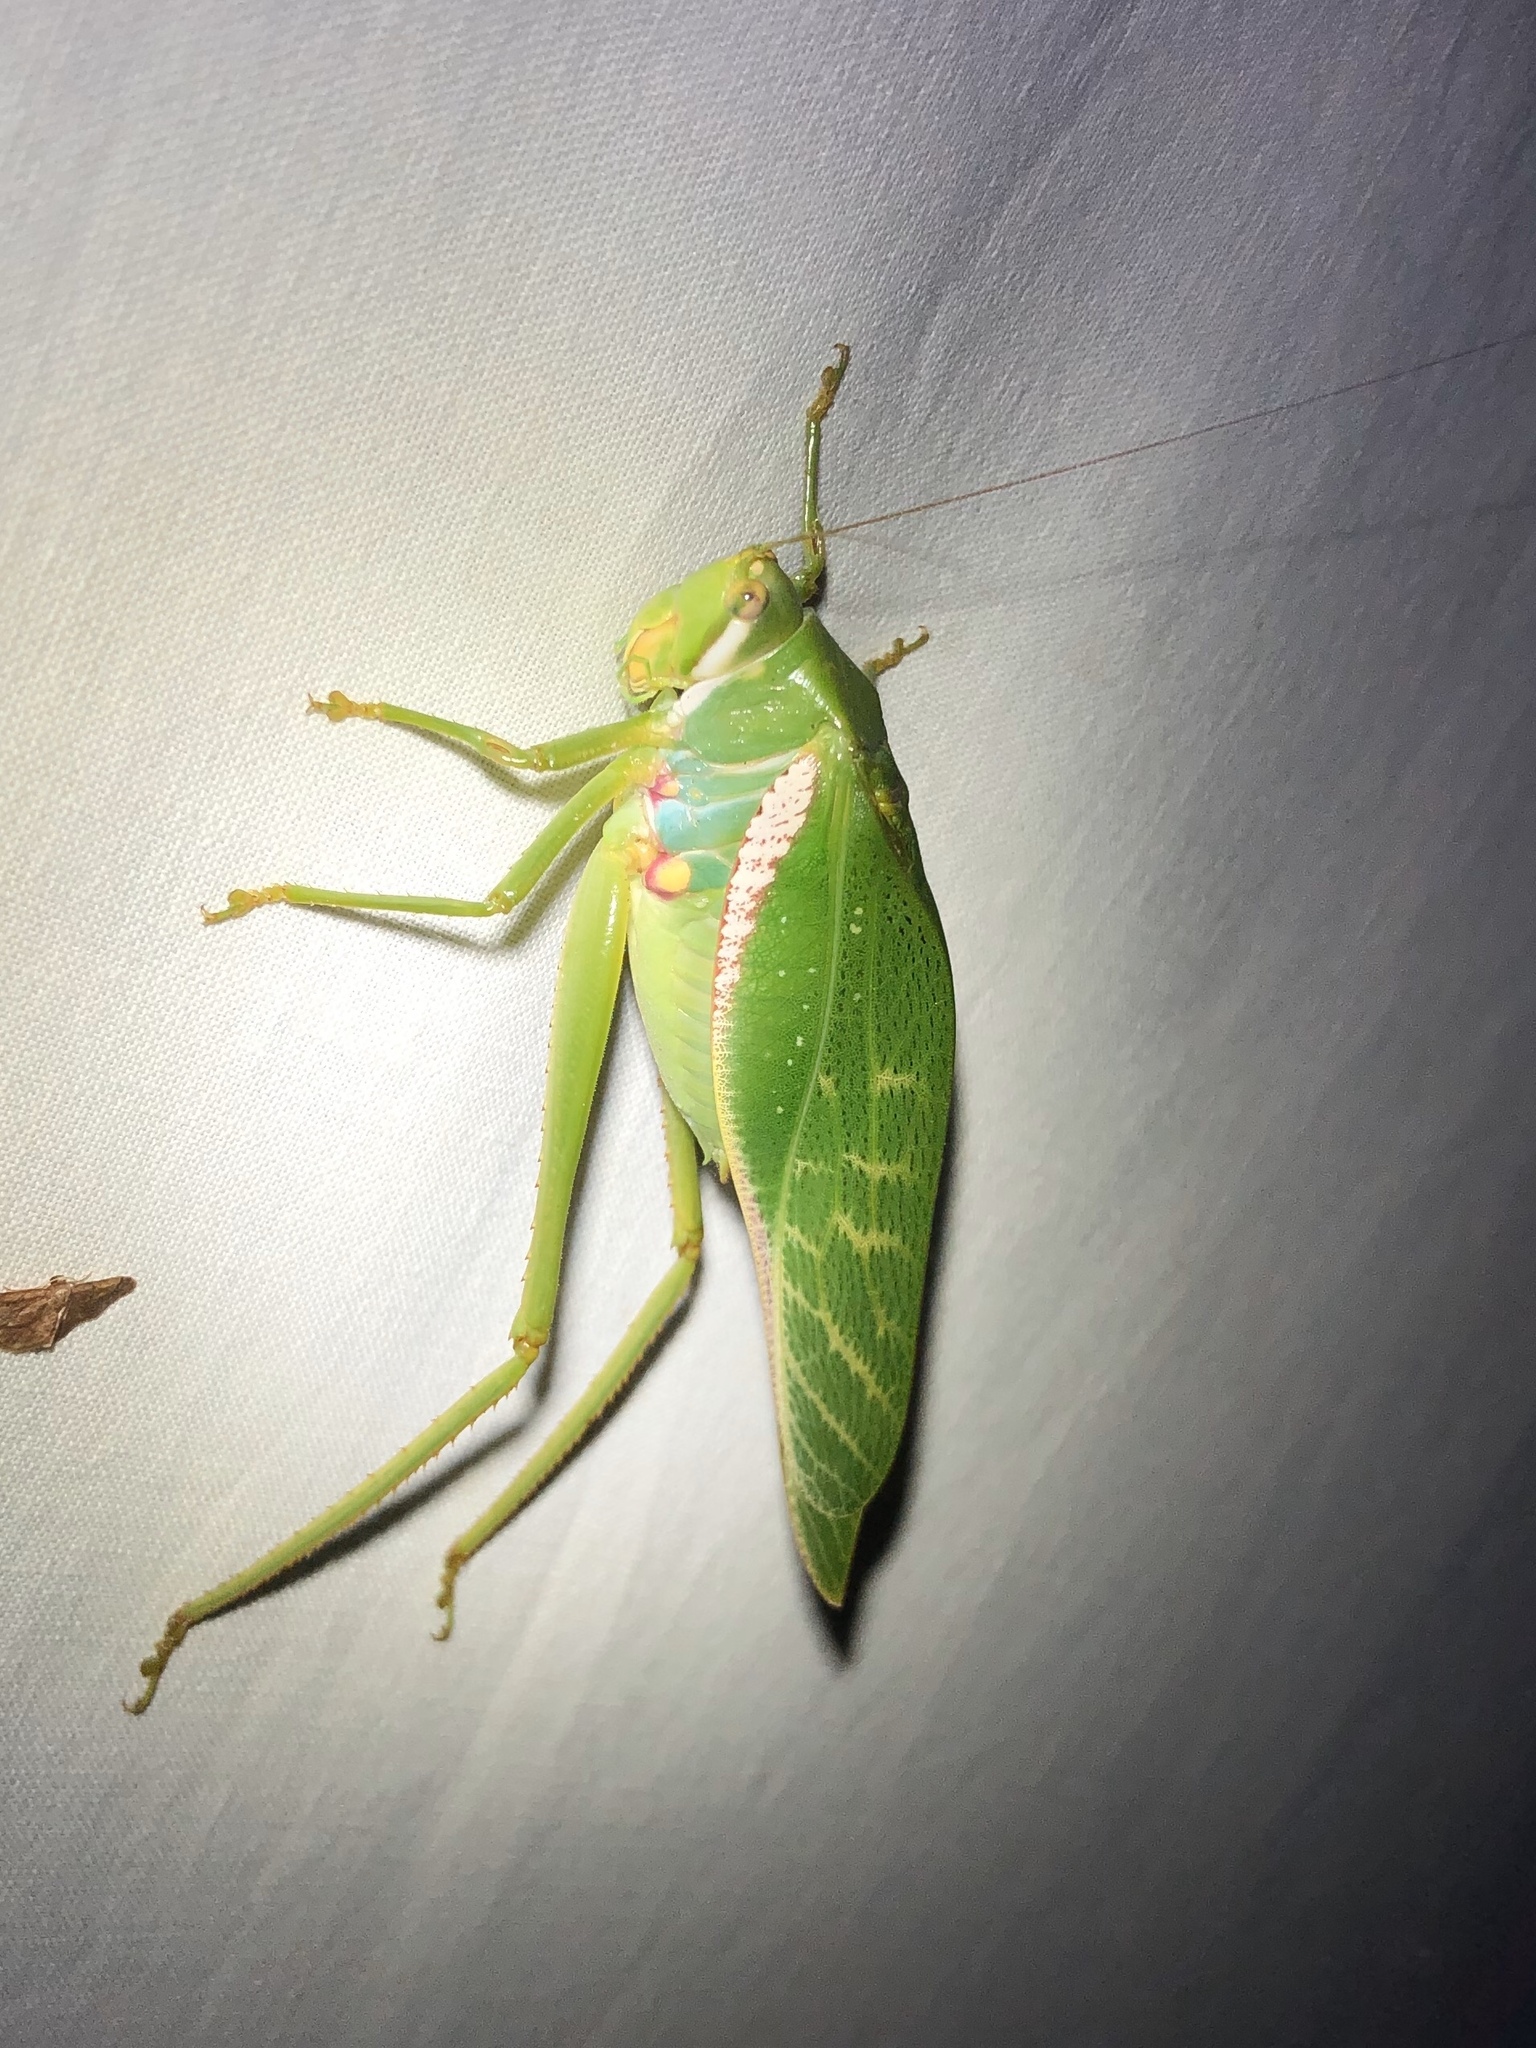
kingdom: Animalia
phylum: Arthropoda
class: Insecta
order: Orthoptera
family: Tettigoniidae
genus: Philophyllia
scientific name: Philophyllia guttulata
